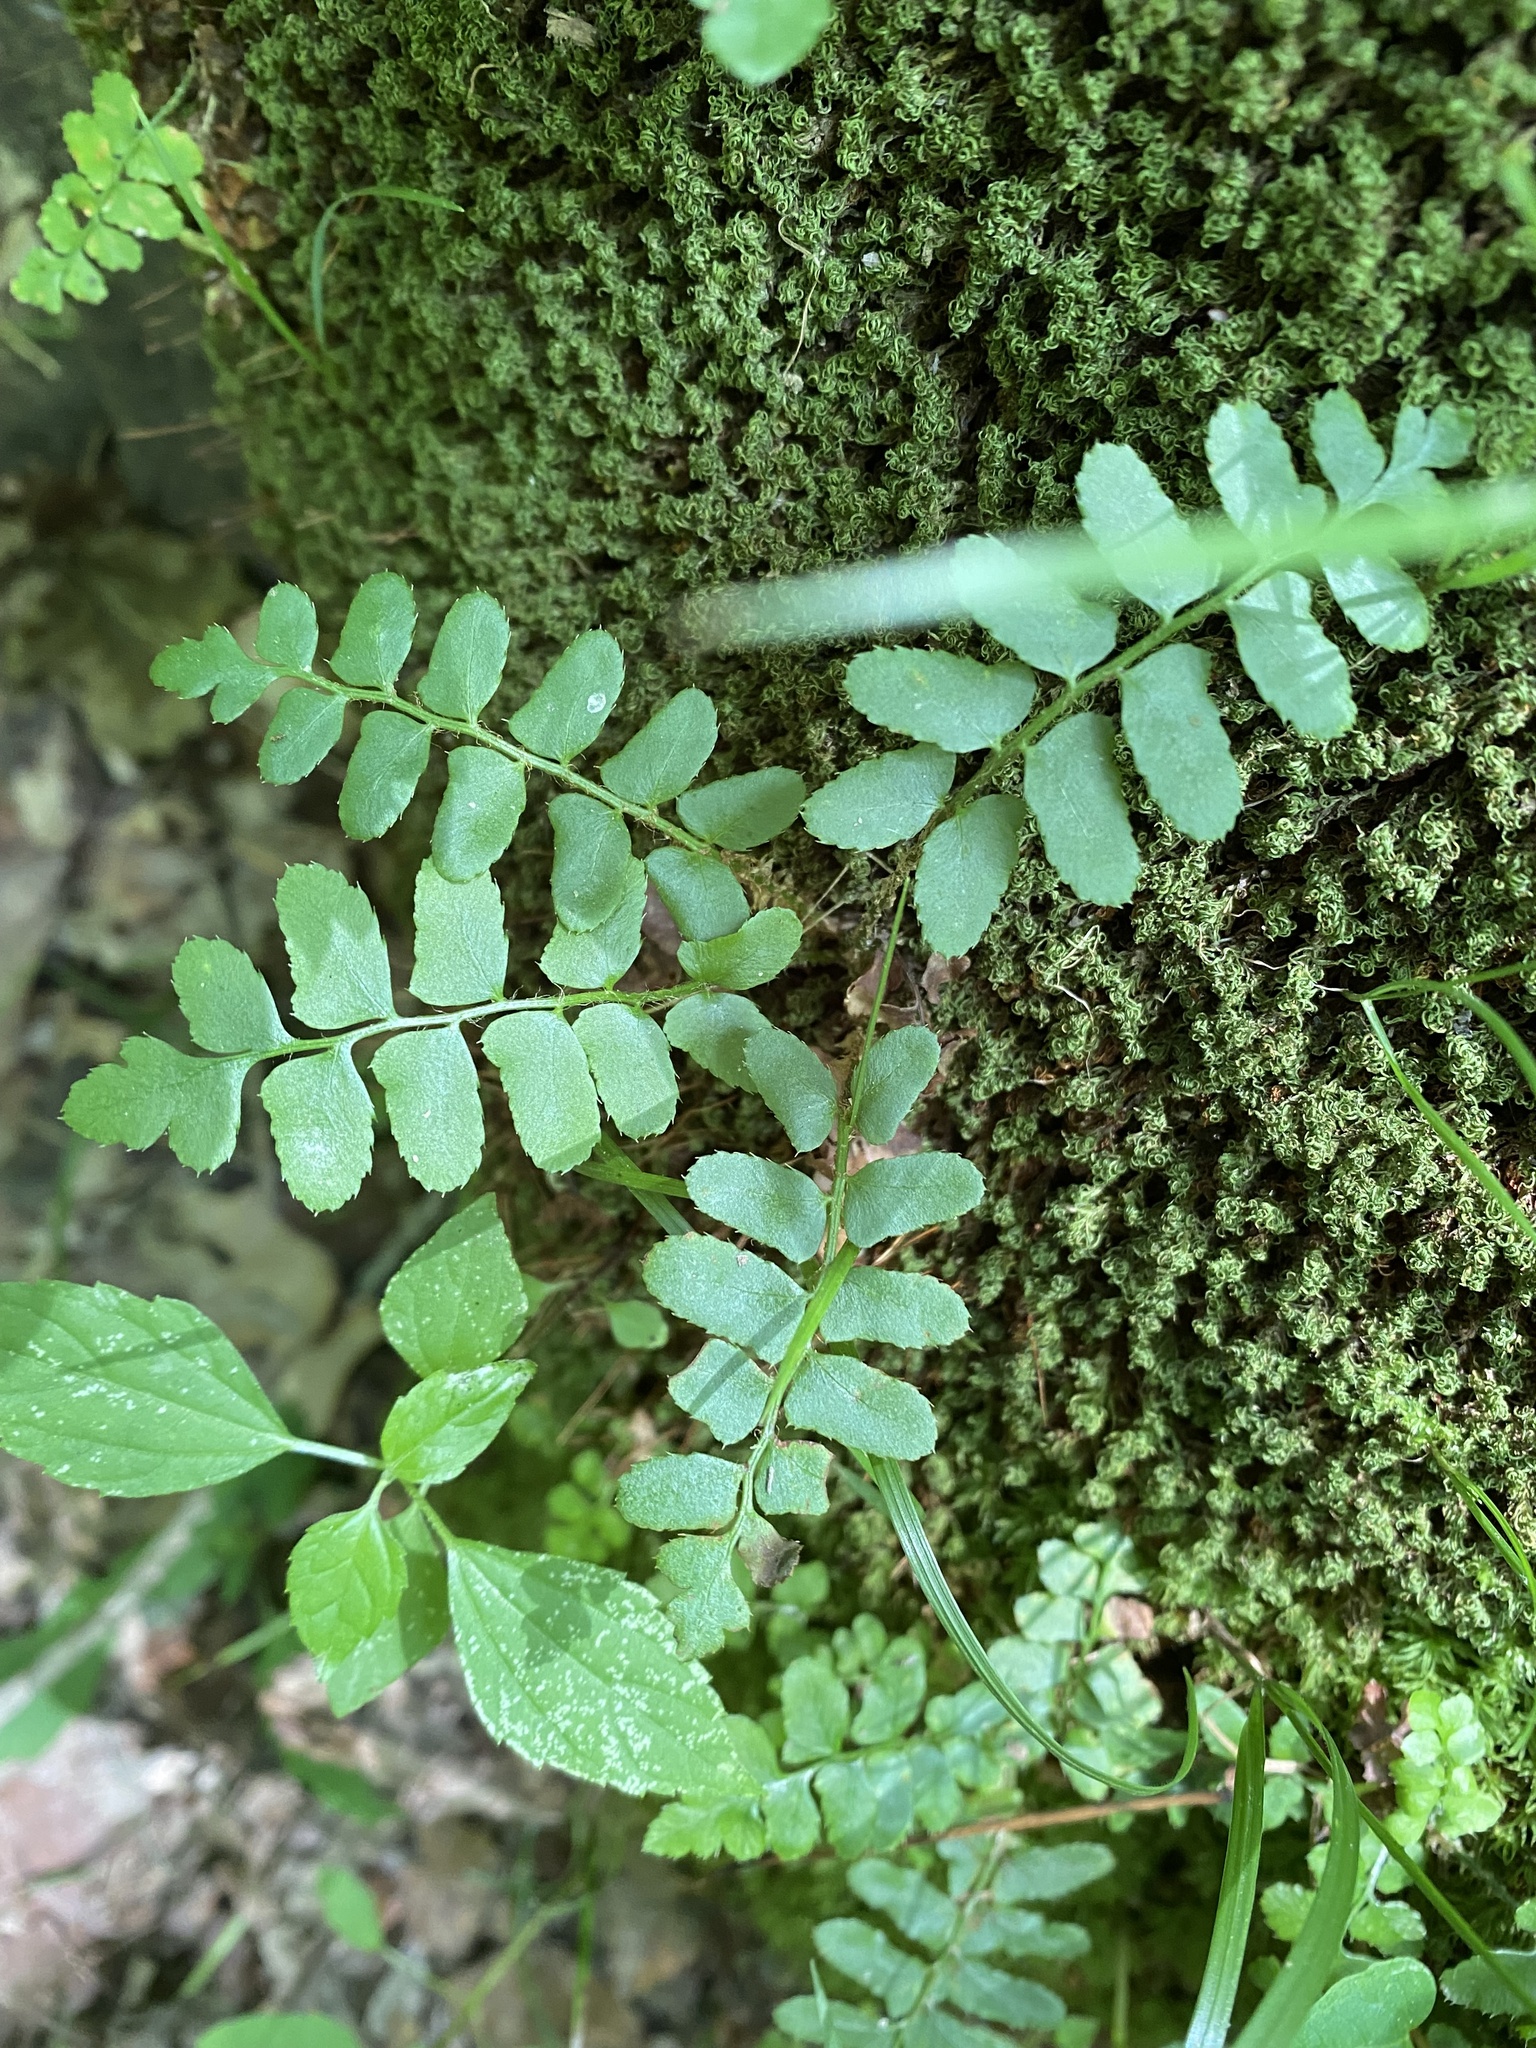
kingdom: Plantae
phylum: Tracheophyta
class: Polypodiopsida
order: Polypodiales
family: Dryopteridaceae
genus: Polystichum
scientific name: Polystichum acrostichoides
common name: Christmas fern
